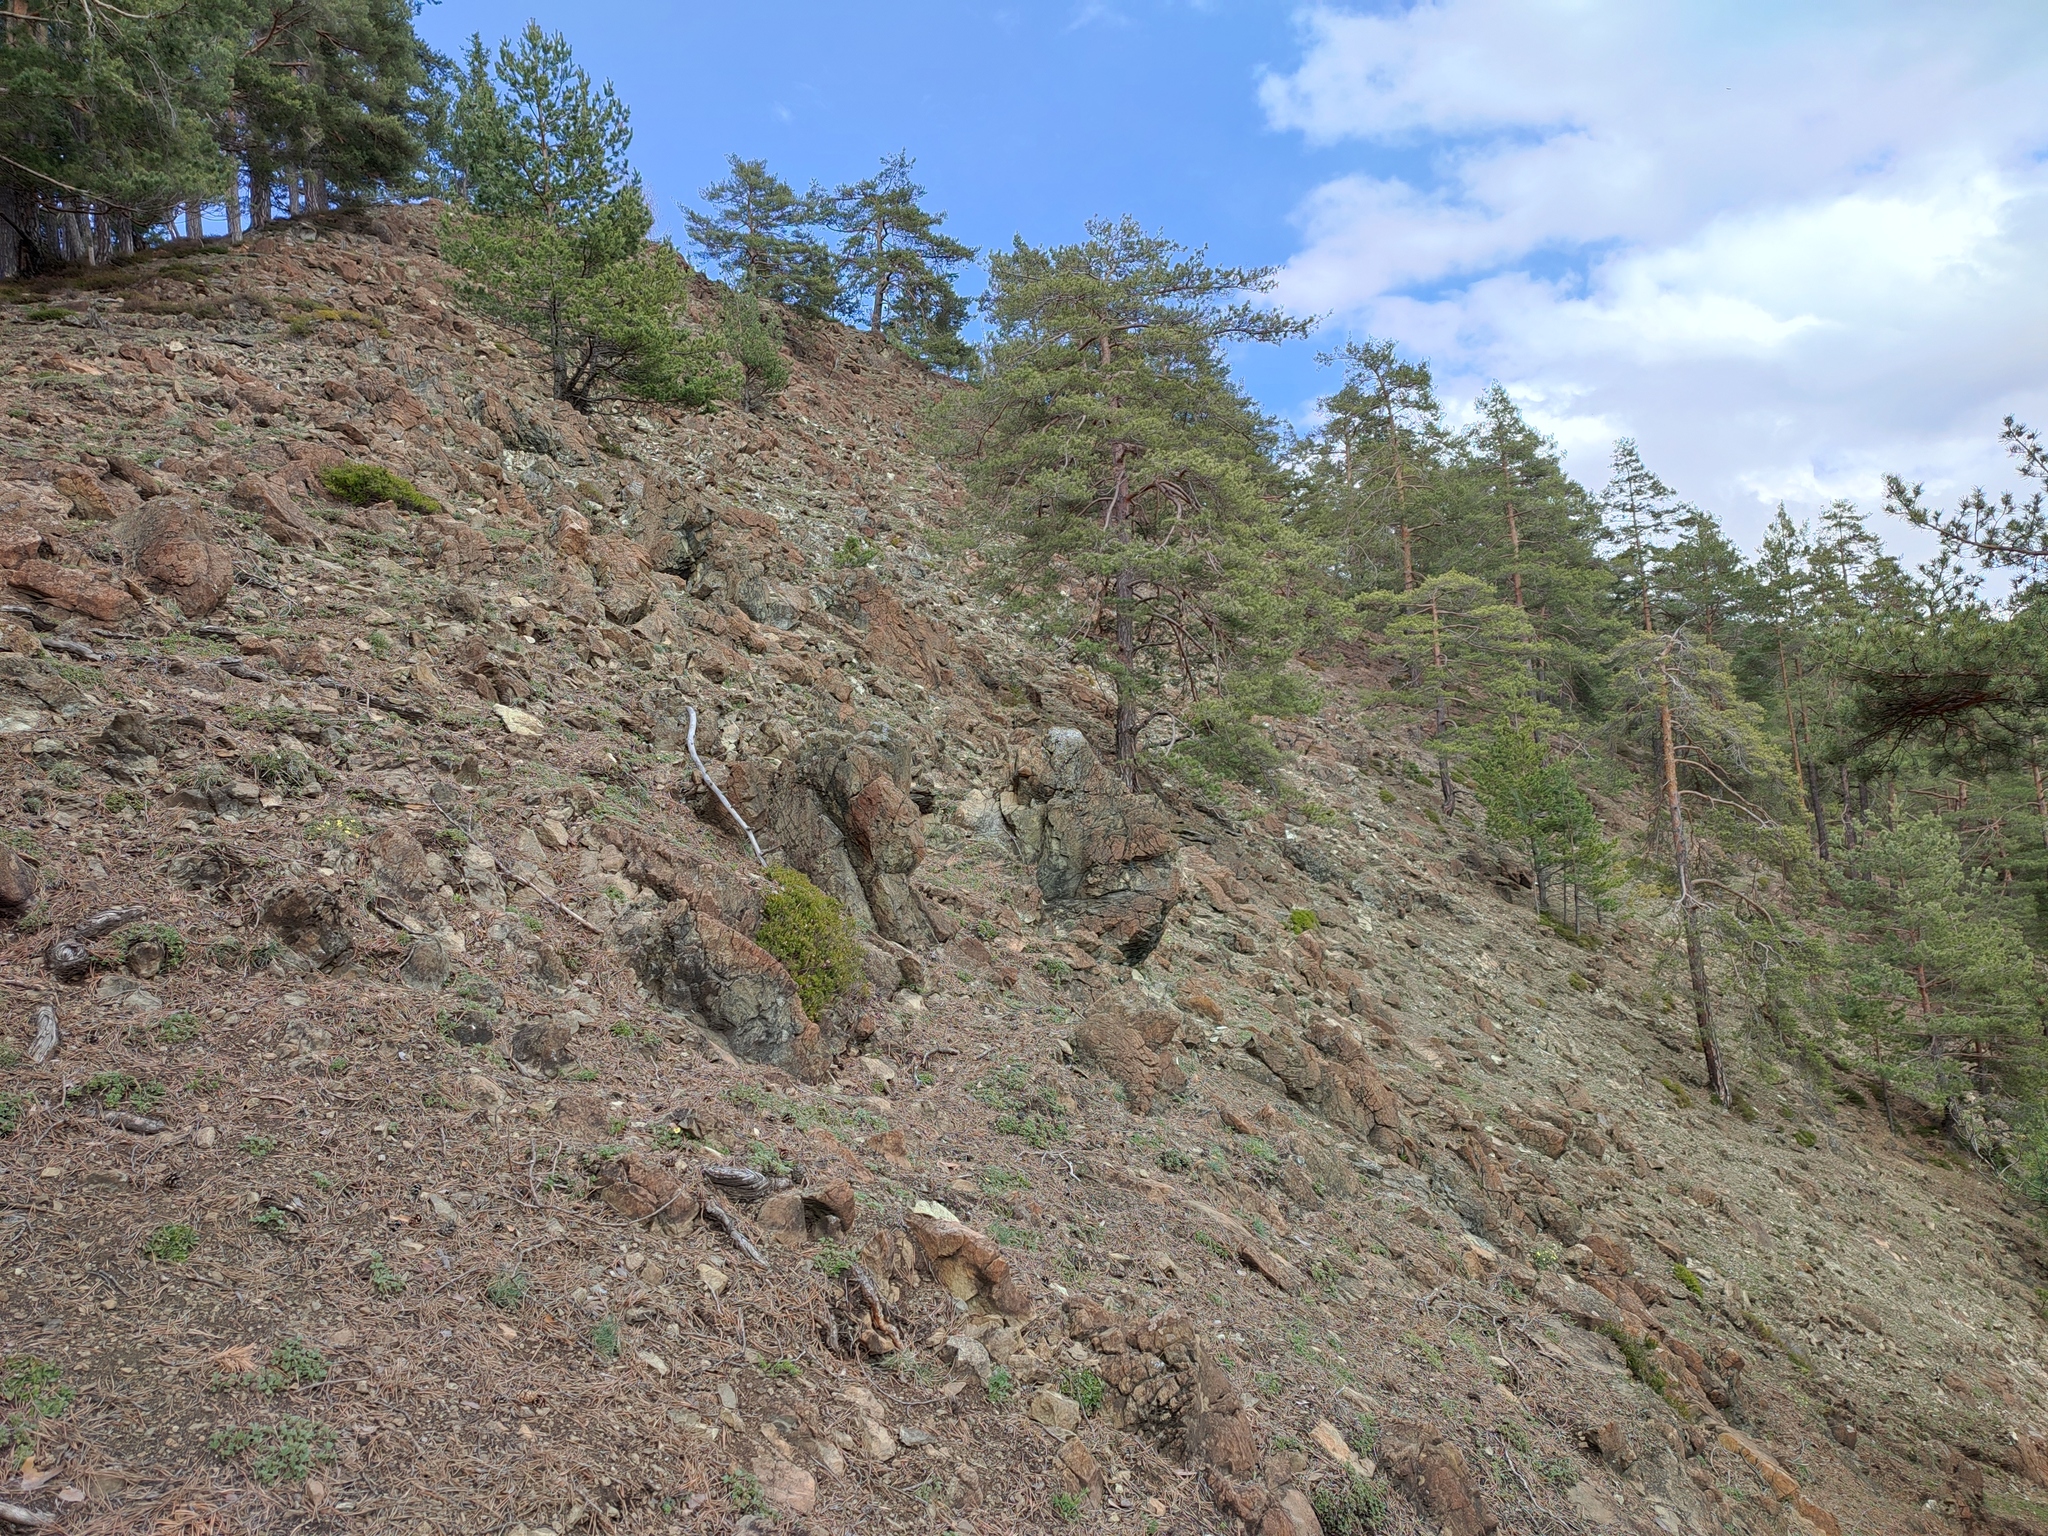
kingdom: Plantae
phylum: Tracheophyta
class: Pinopsida
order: Pinales
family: Pinaceae
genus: Pinus
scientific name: Pinus sylvestris
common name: Scots pine
